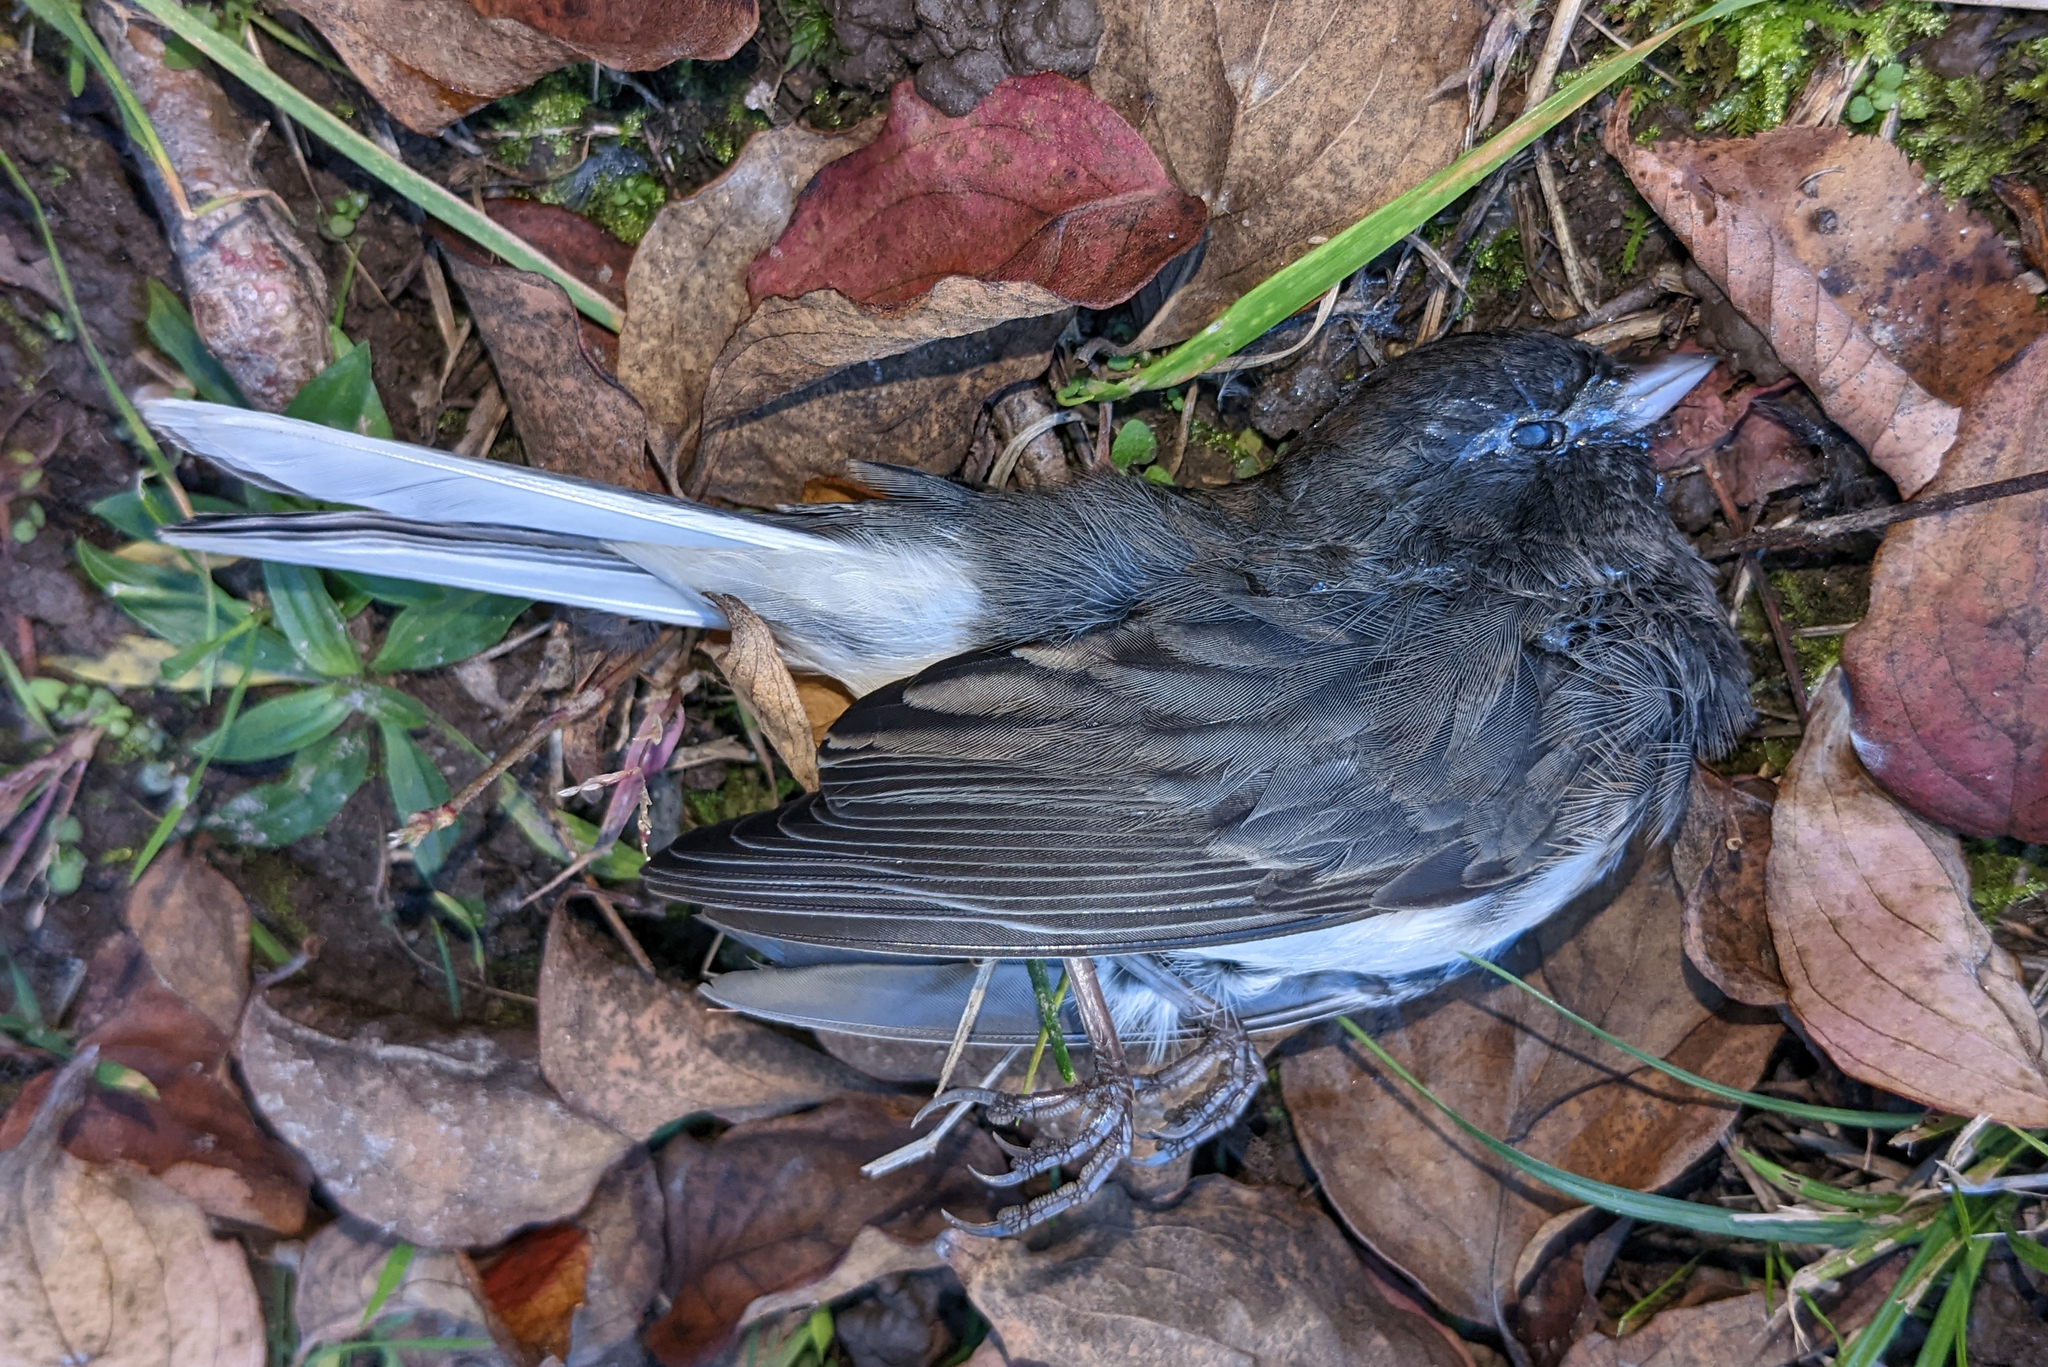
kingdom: Animalia
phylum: Chordata
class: Aves
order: Passeriformes
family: Passerellidae
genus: Junco
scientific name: Junco hyemalis
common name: Dark-eyed junco
